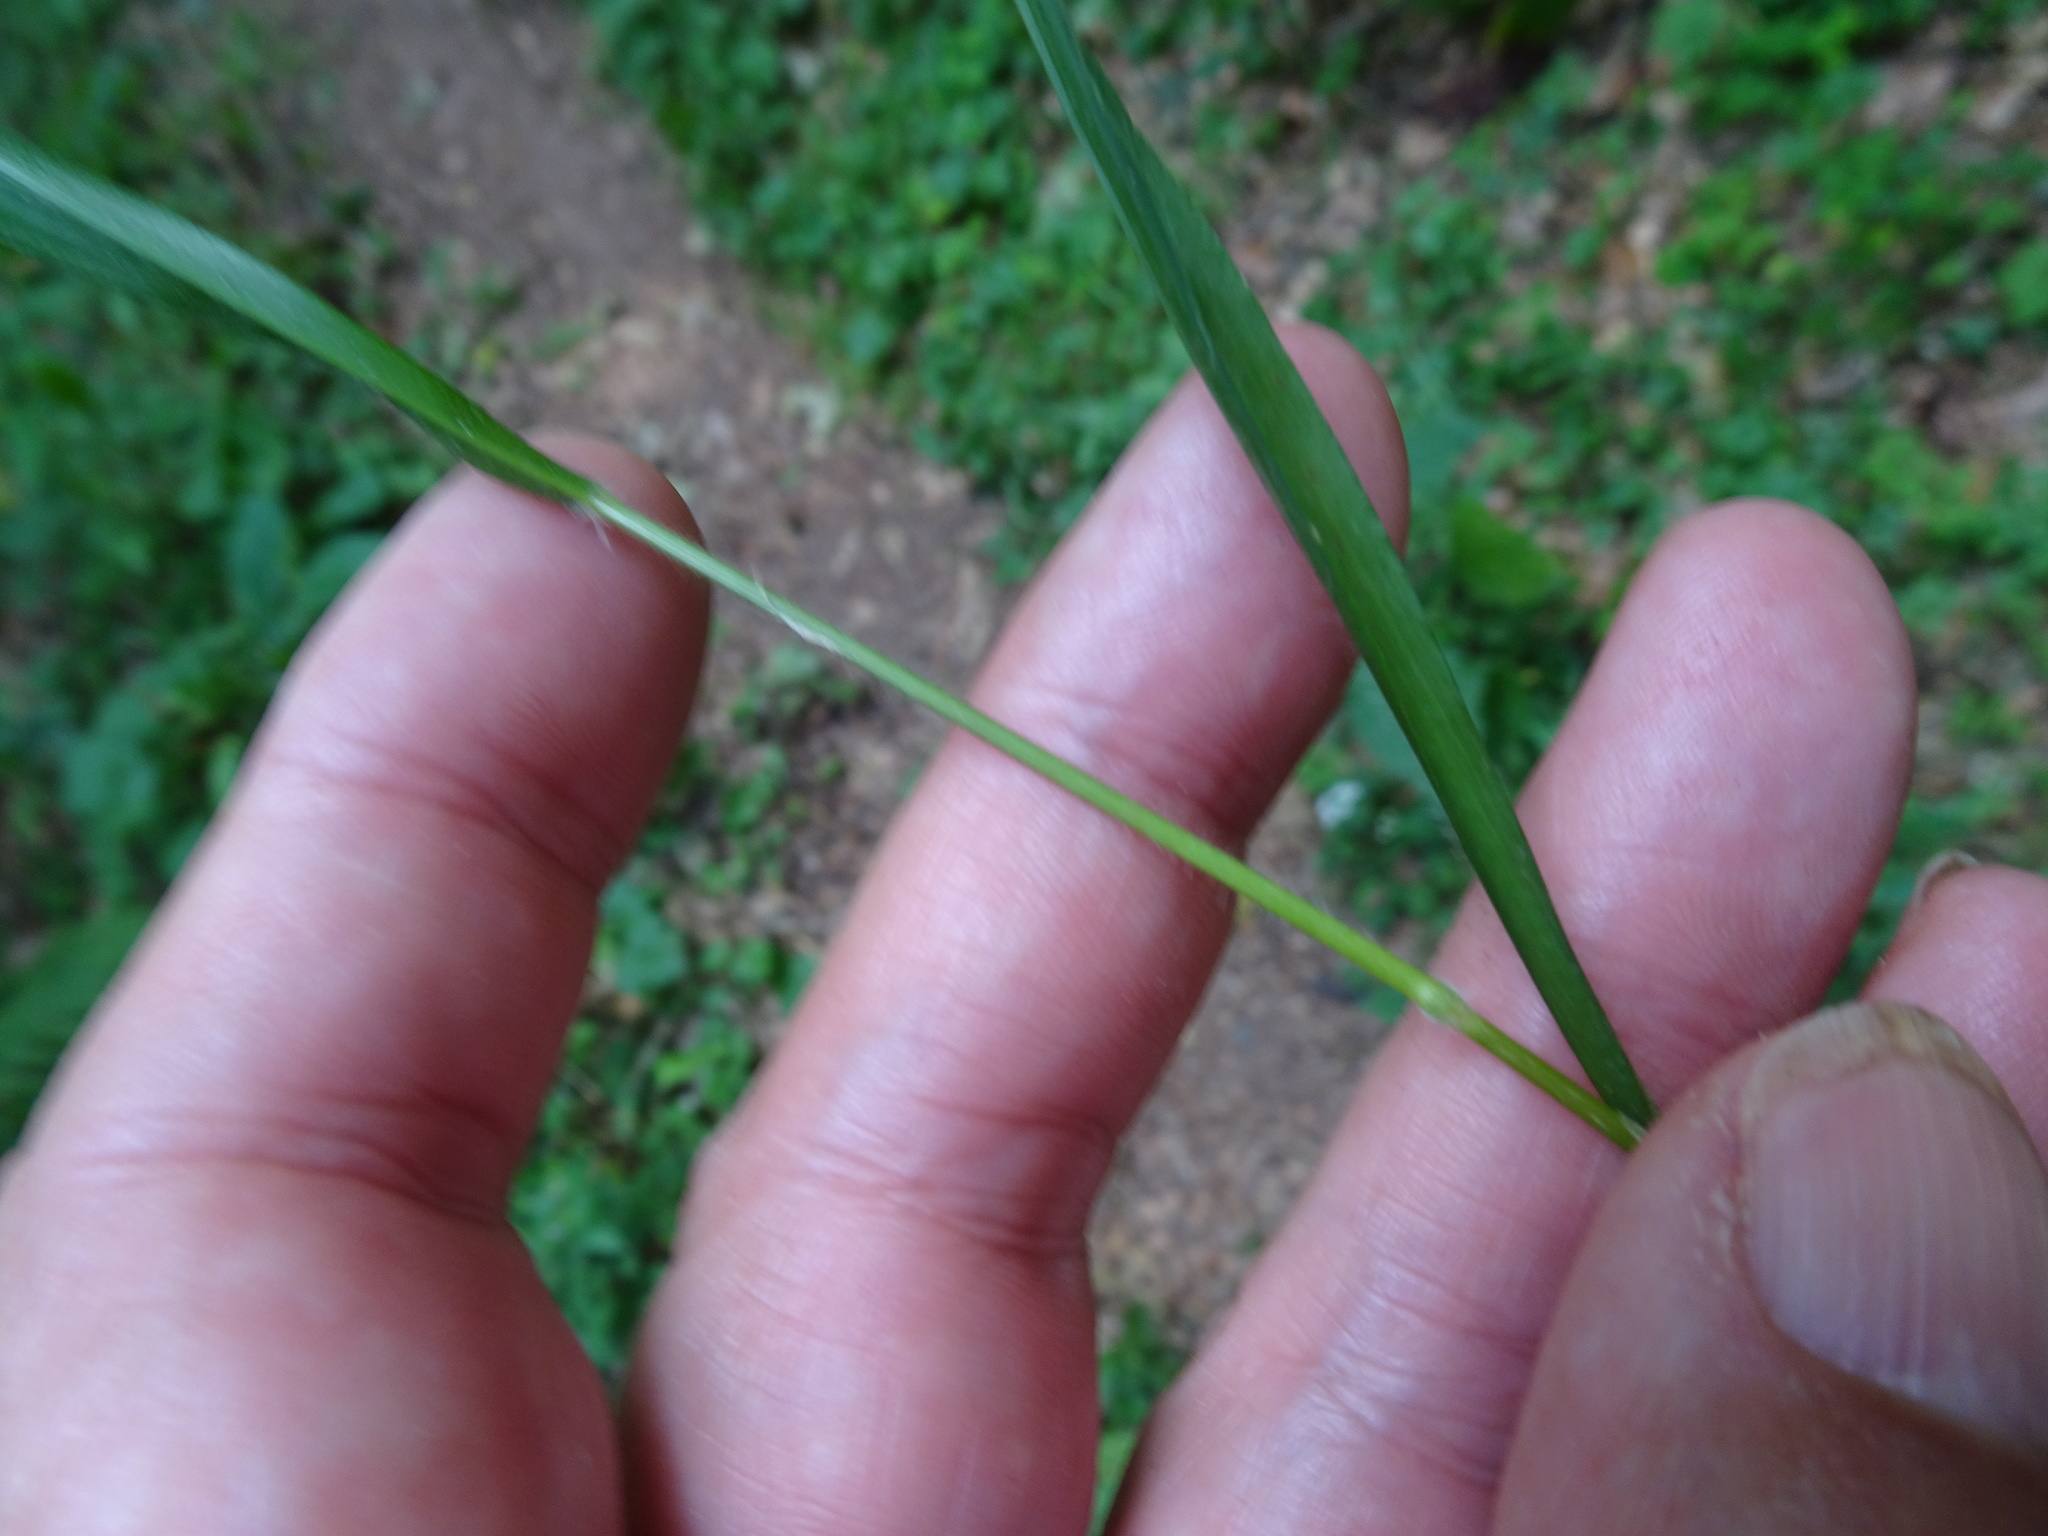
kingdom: Plantae
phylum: Tracheophyta
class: Liliopsida
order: Poales
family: Poaceae
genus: Brachypodium
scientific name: Brachypodium sylvaticum
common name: False-brome
